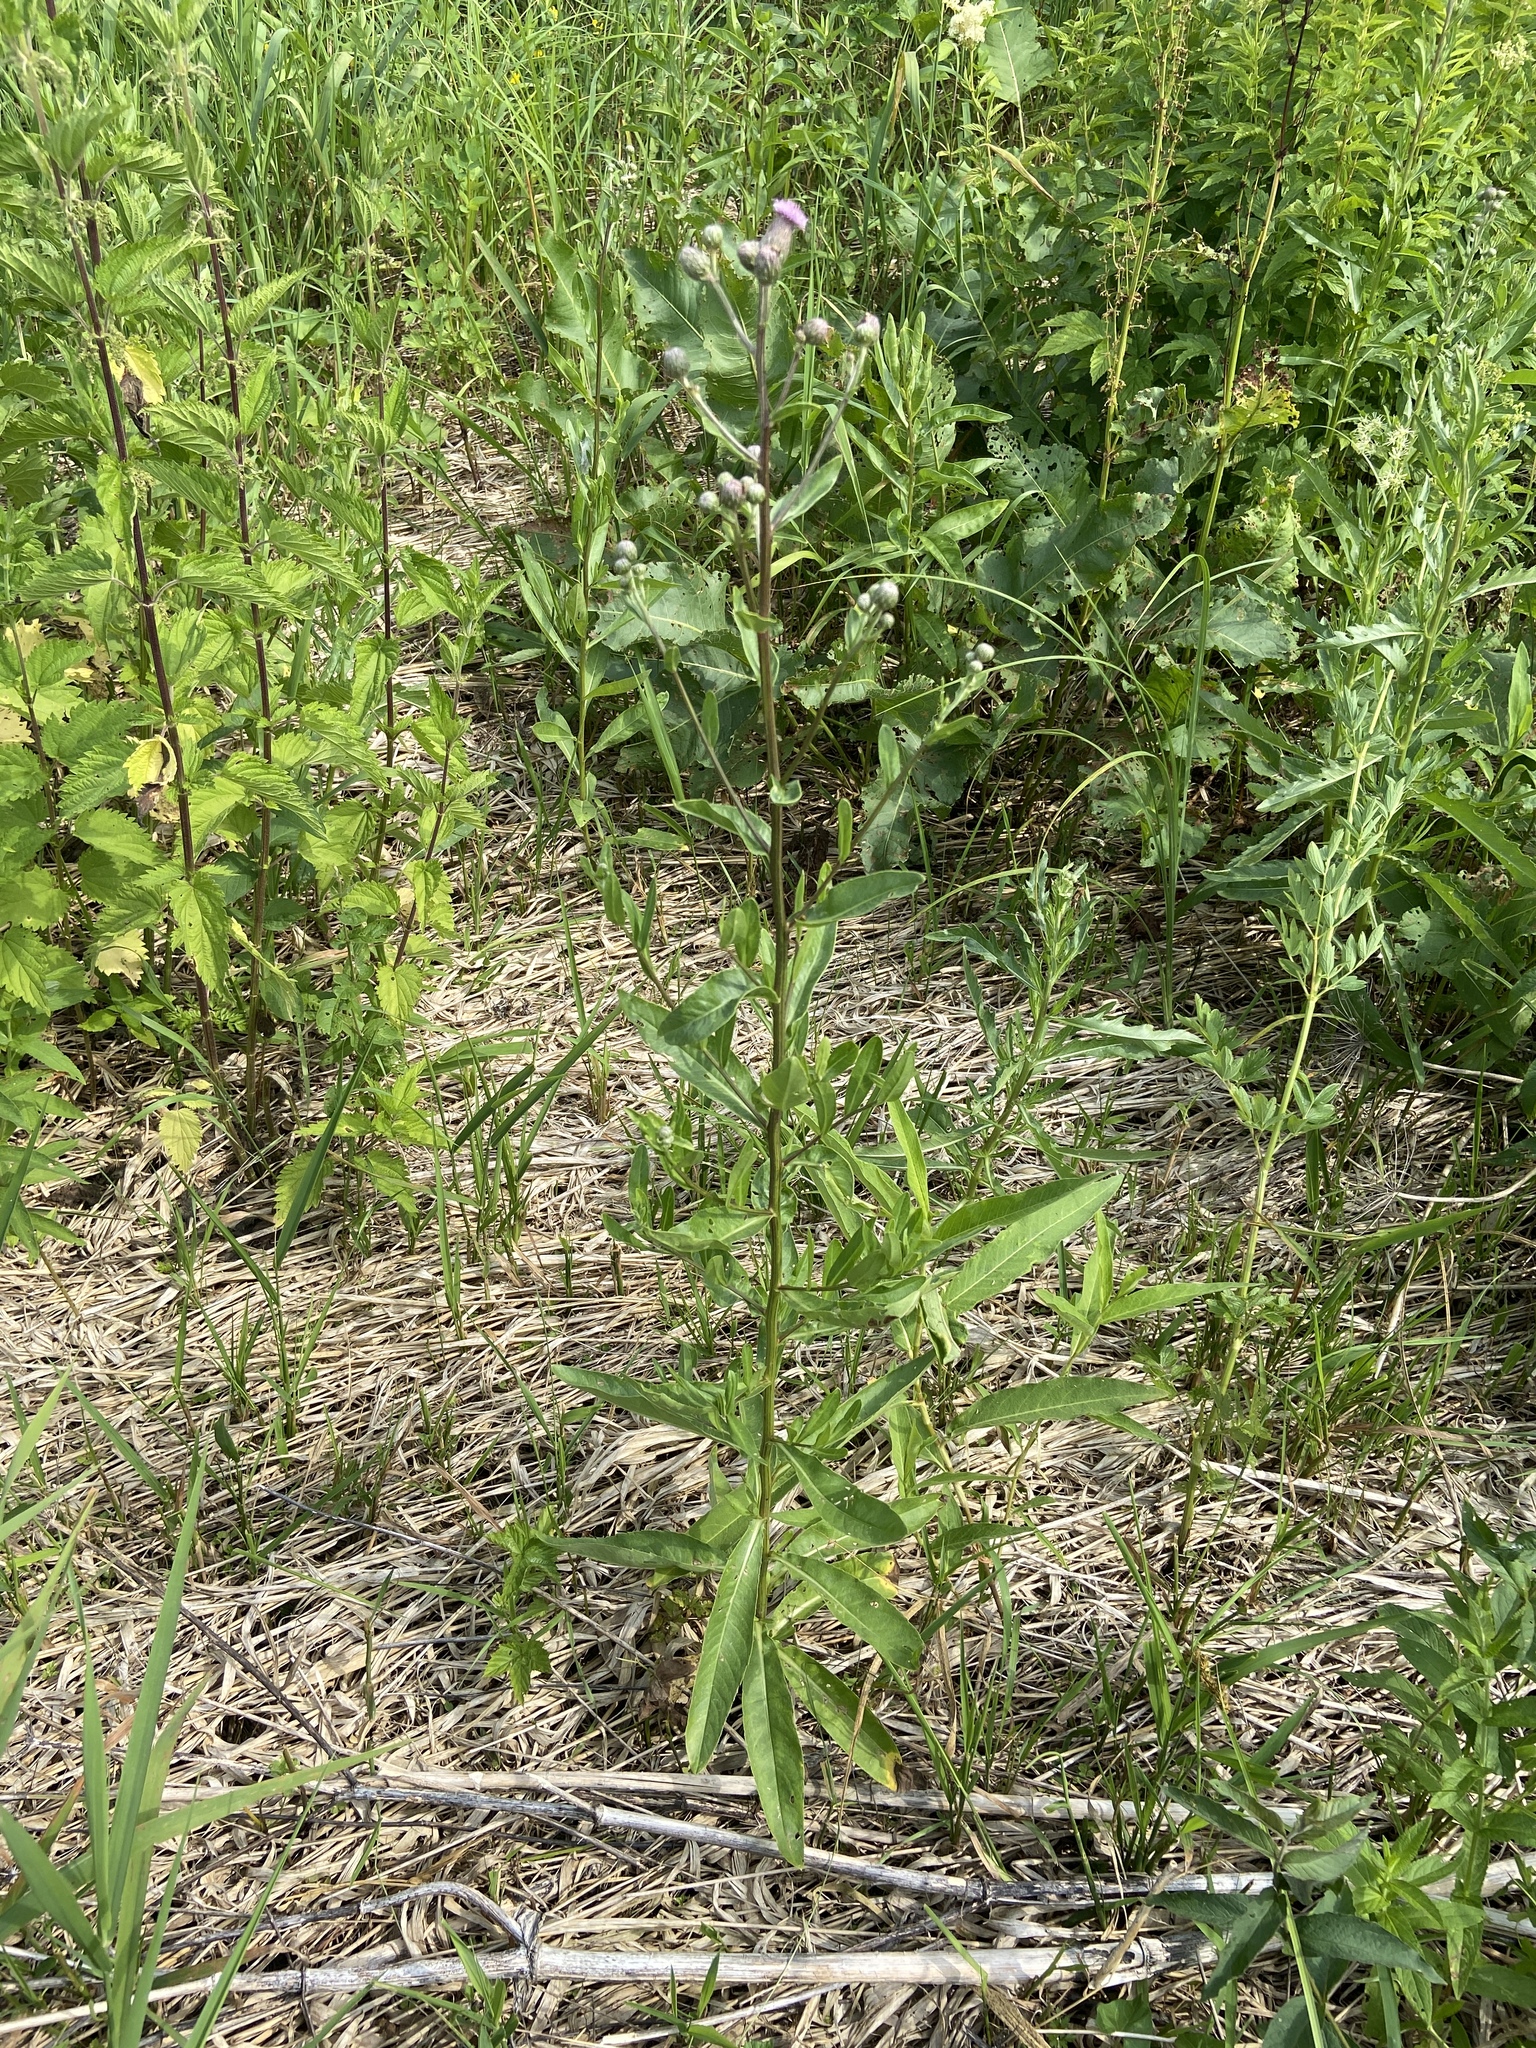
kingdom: Plantae
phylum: Tracheophyta
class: Magnoliopsida
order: Asterales
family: Asteraceae
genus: Cirsium
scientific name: Cirsium arvense
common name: Creeping thistle
